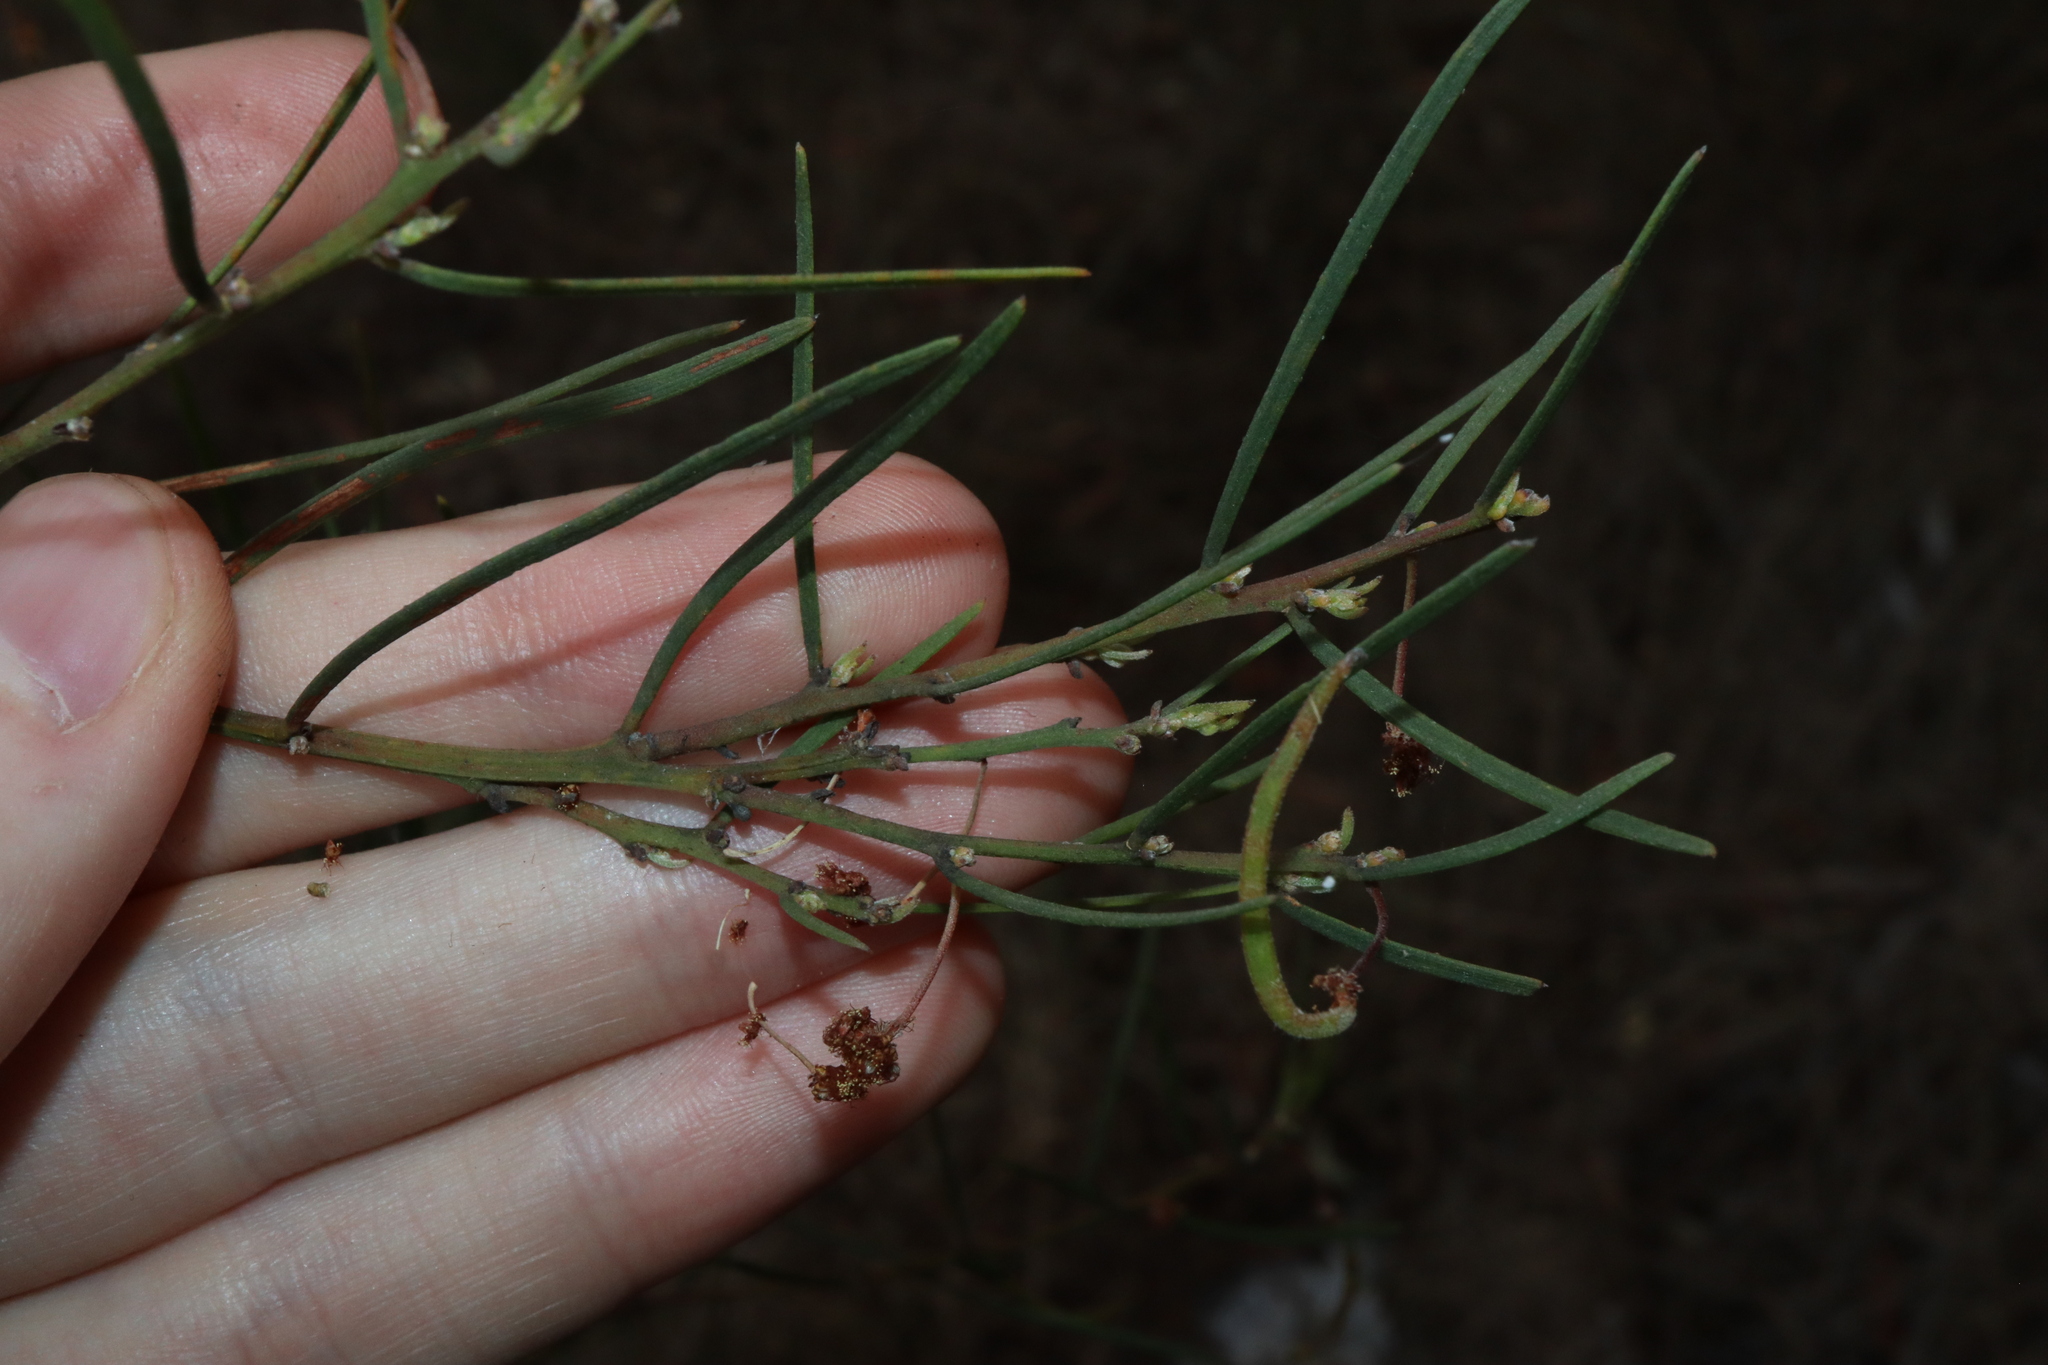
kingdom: Plantae
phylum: Tracheophyta
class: Magnoliopsida
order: Fabales
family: Fabaceae
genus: Acacia
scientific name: Acacia elongata
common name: Swamp wattle
